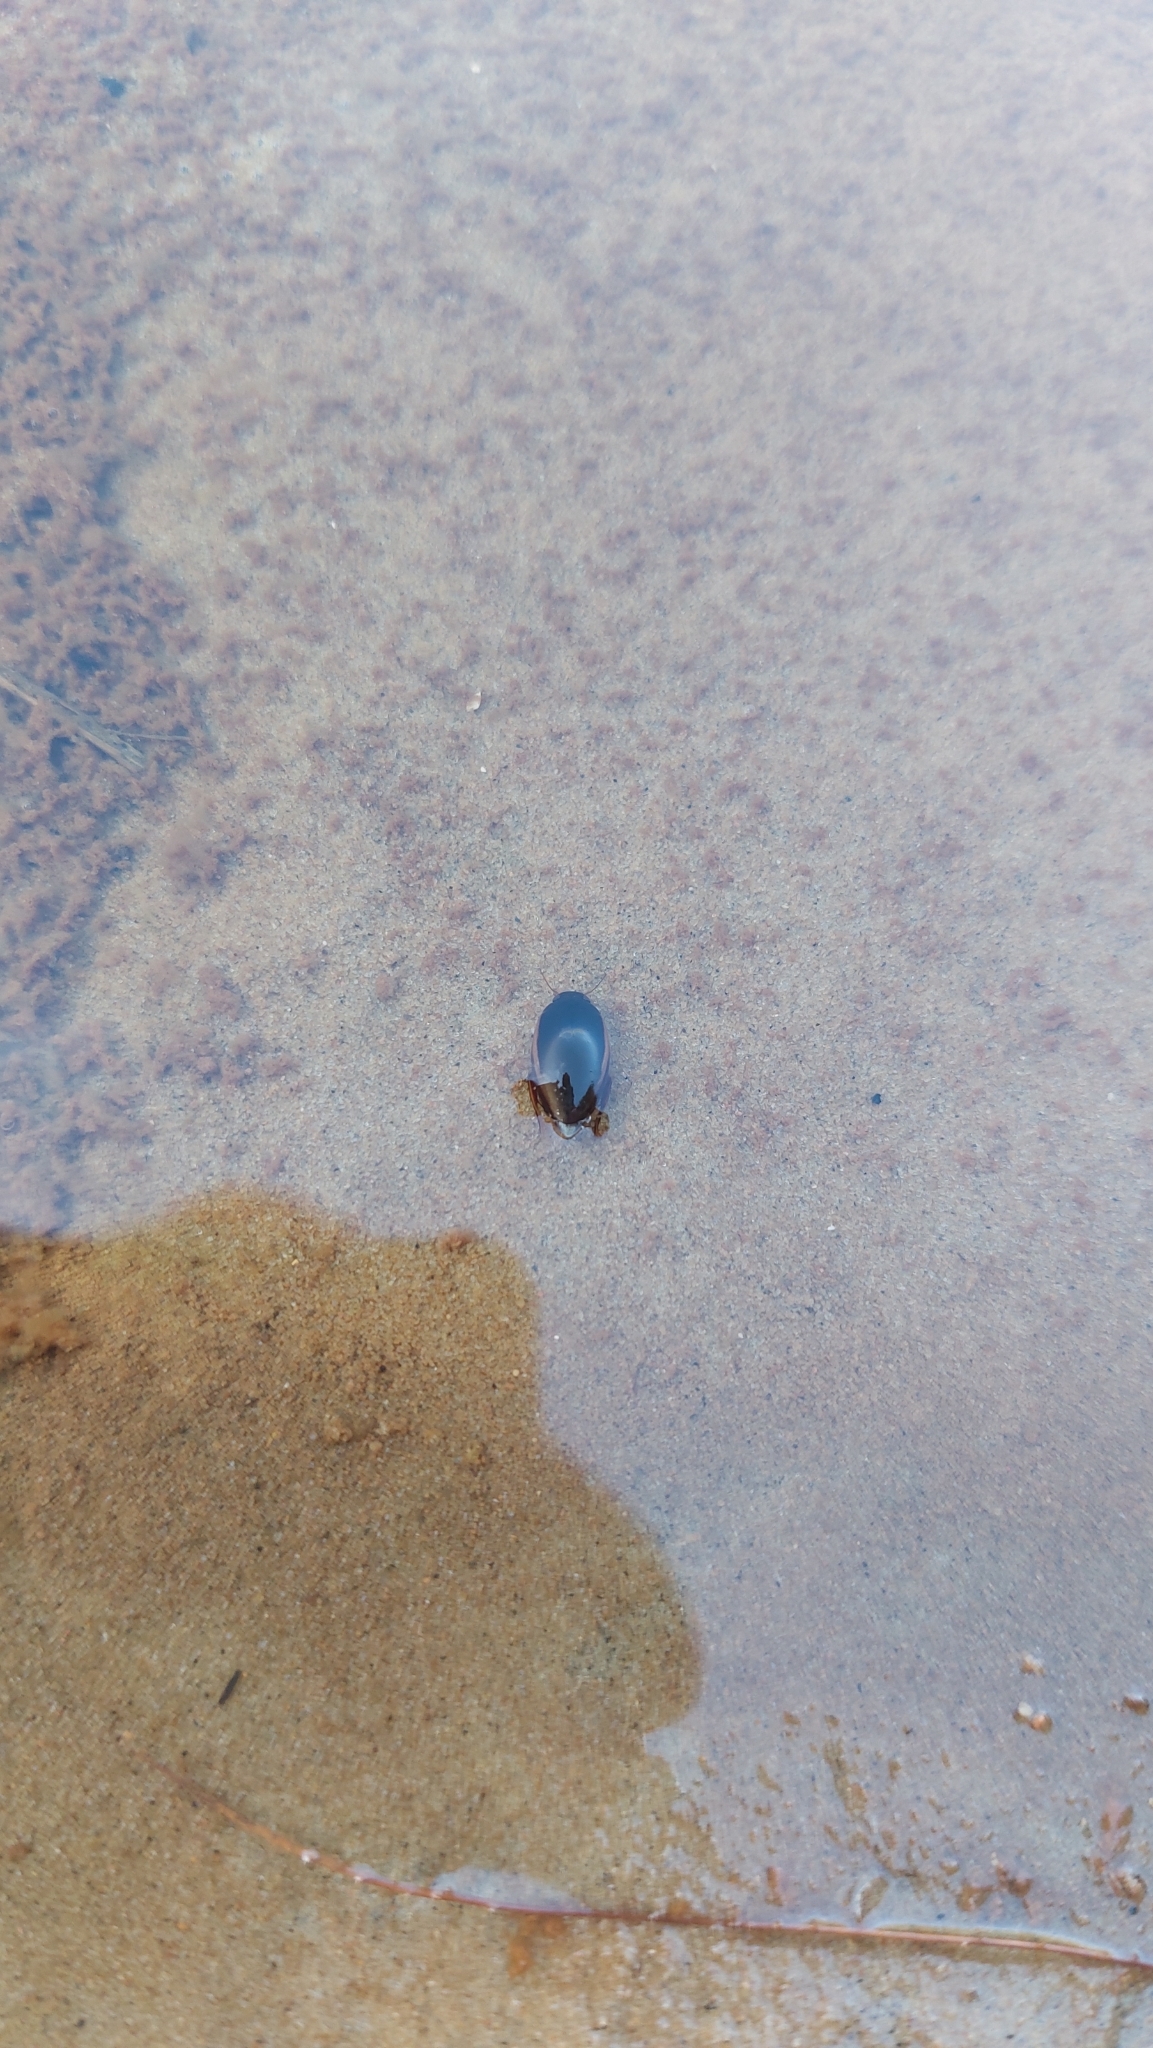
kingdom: Animalia
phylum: Arthropoda
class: Insecta
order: Coleoptera
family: Dytiscidae
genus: Ilybius
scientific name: Ilybius fuliginosus
